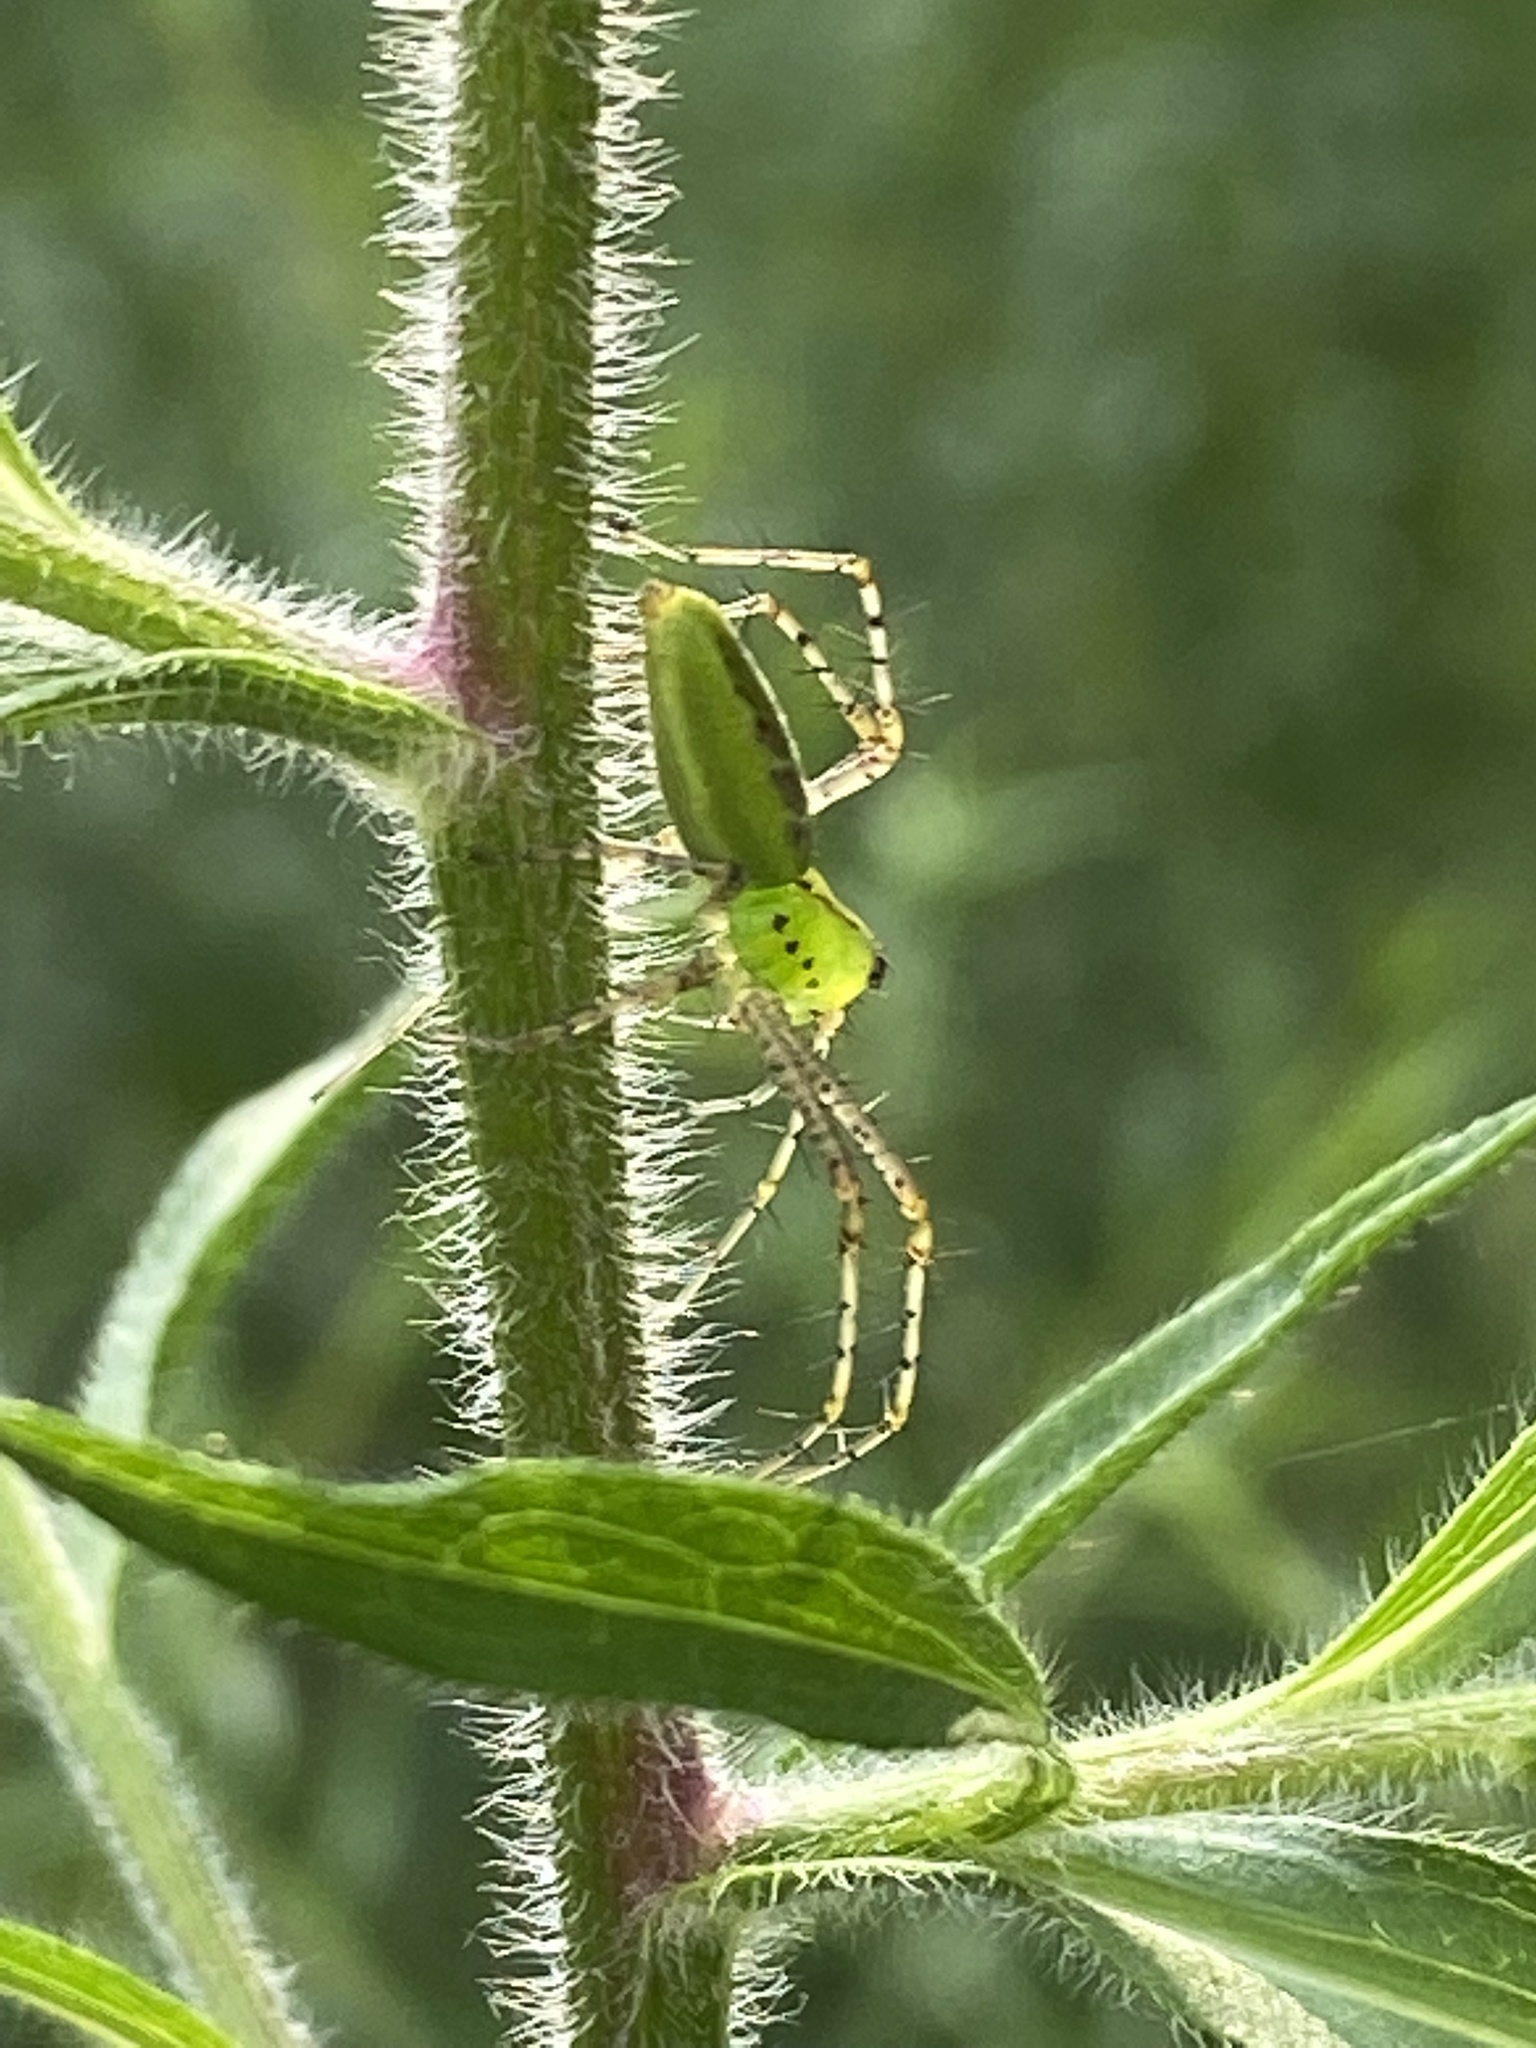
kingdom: Animalia
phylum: Arthropoda
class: Arachnida
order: Araneae
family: Oxyopidae
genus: Peucetia
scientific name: Peucetia viridans
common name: Lynx spiders
